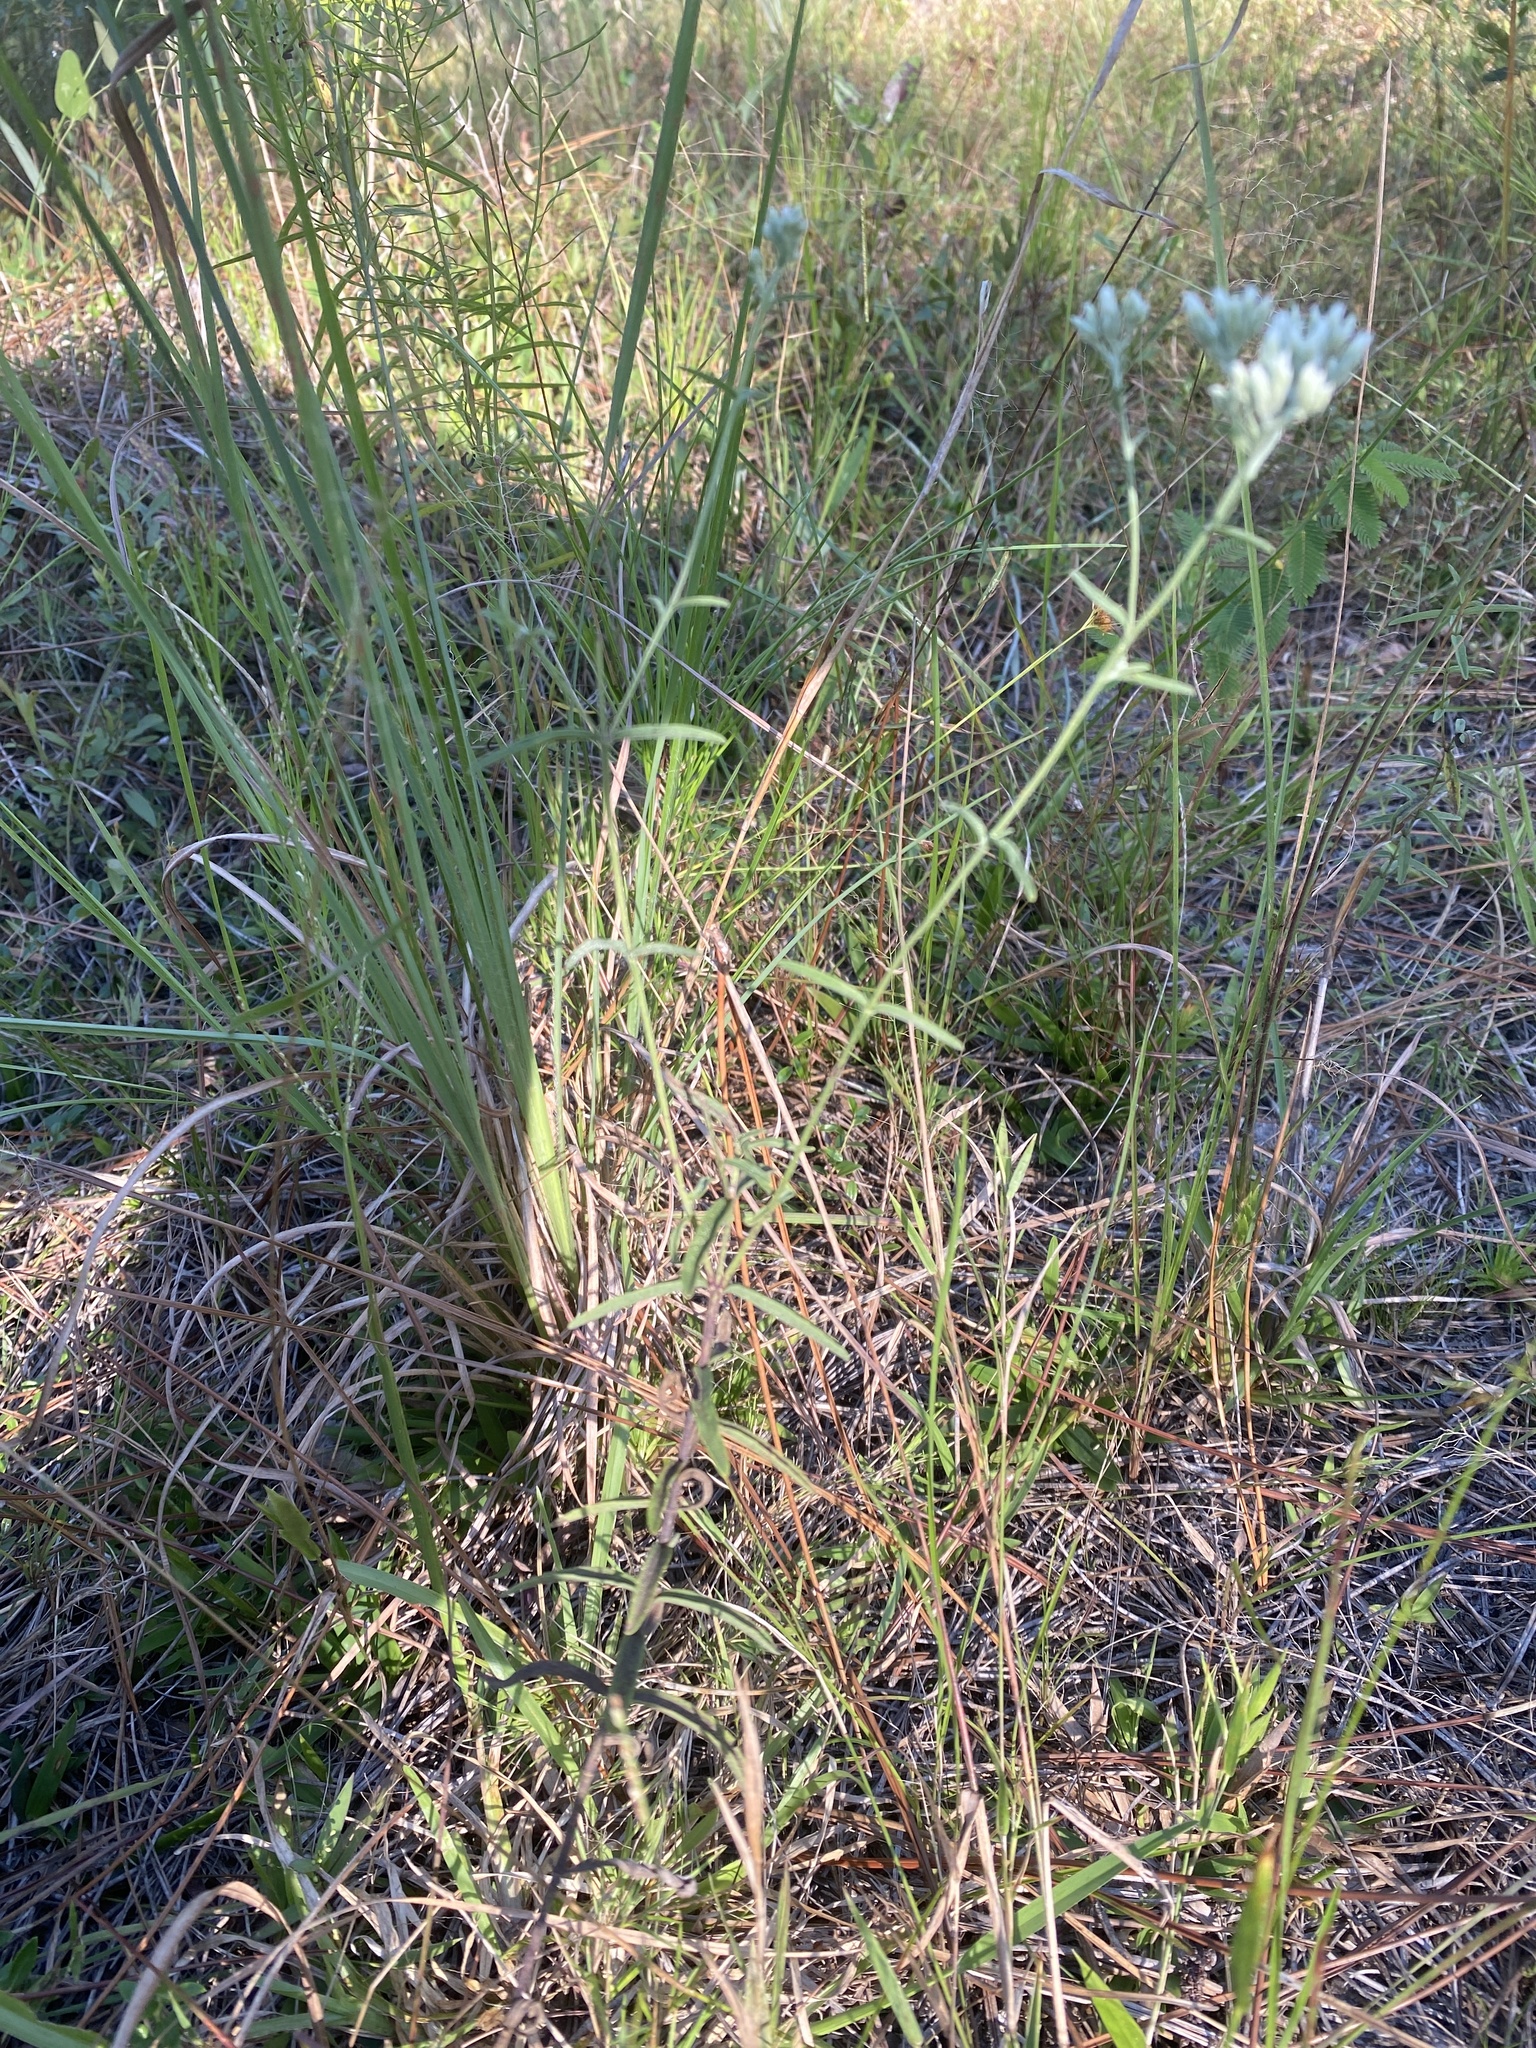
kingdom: Plantae
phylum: Tracheophyta
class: Magnoliopsida
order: Asterales
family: Asteraceae
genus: Eupatorium
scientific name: Eupatorium mohrii
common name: Mohr's thoroughwort
